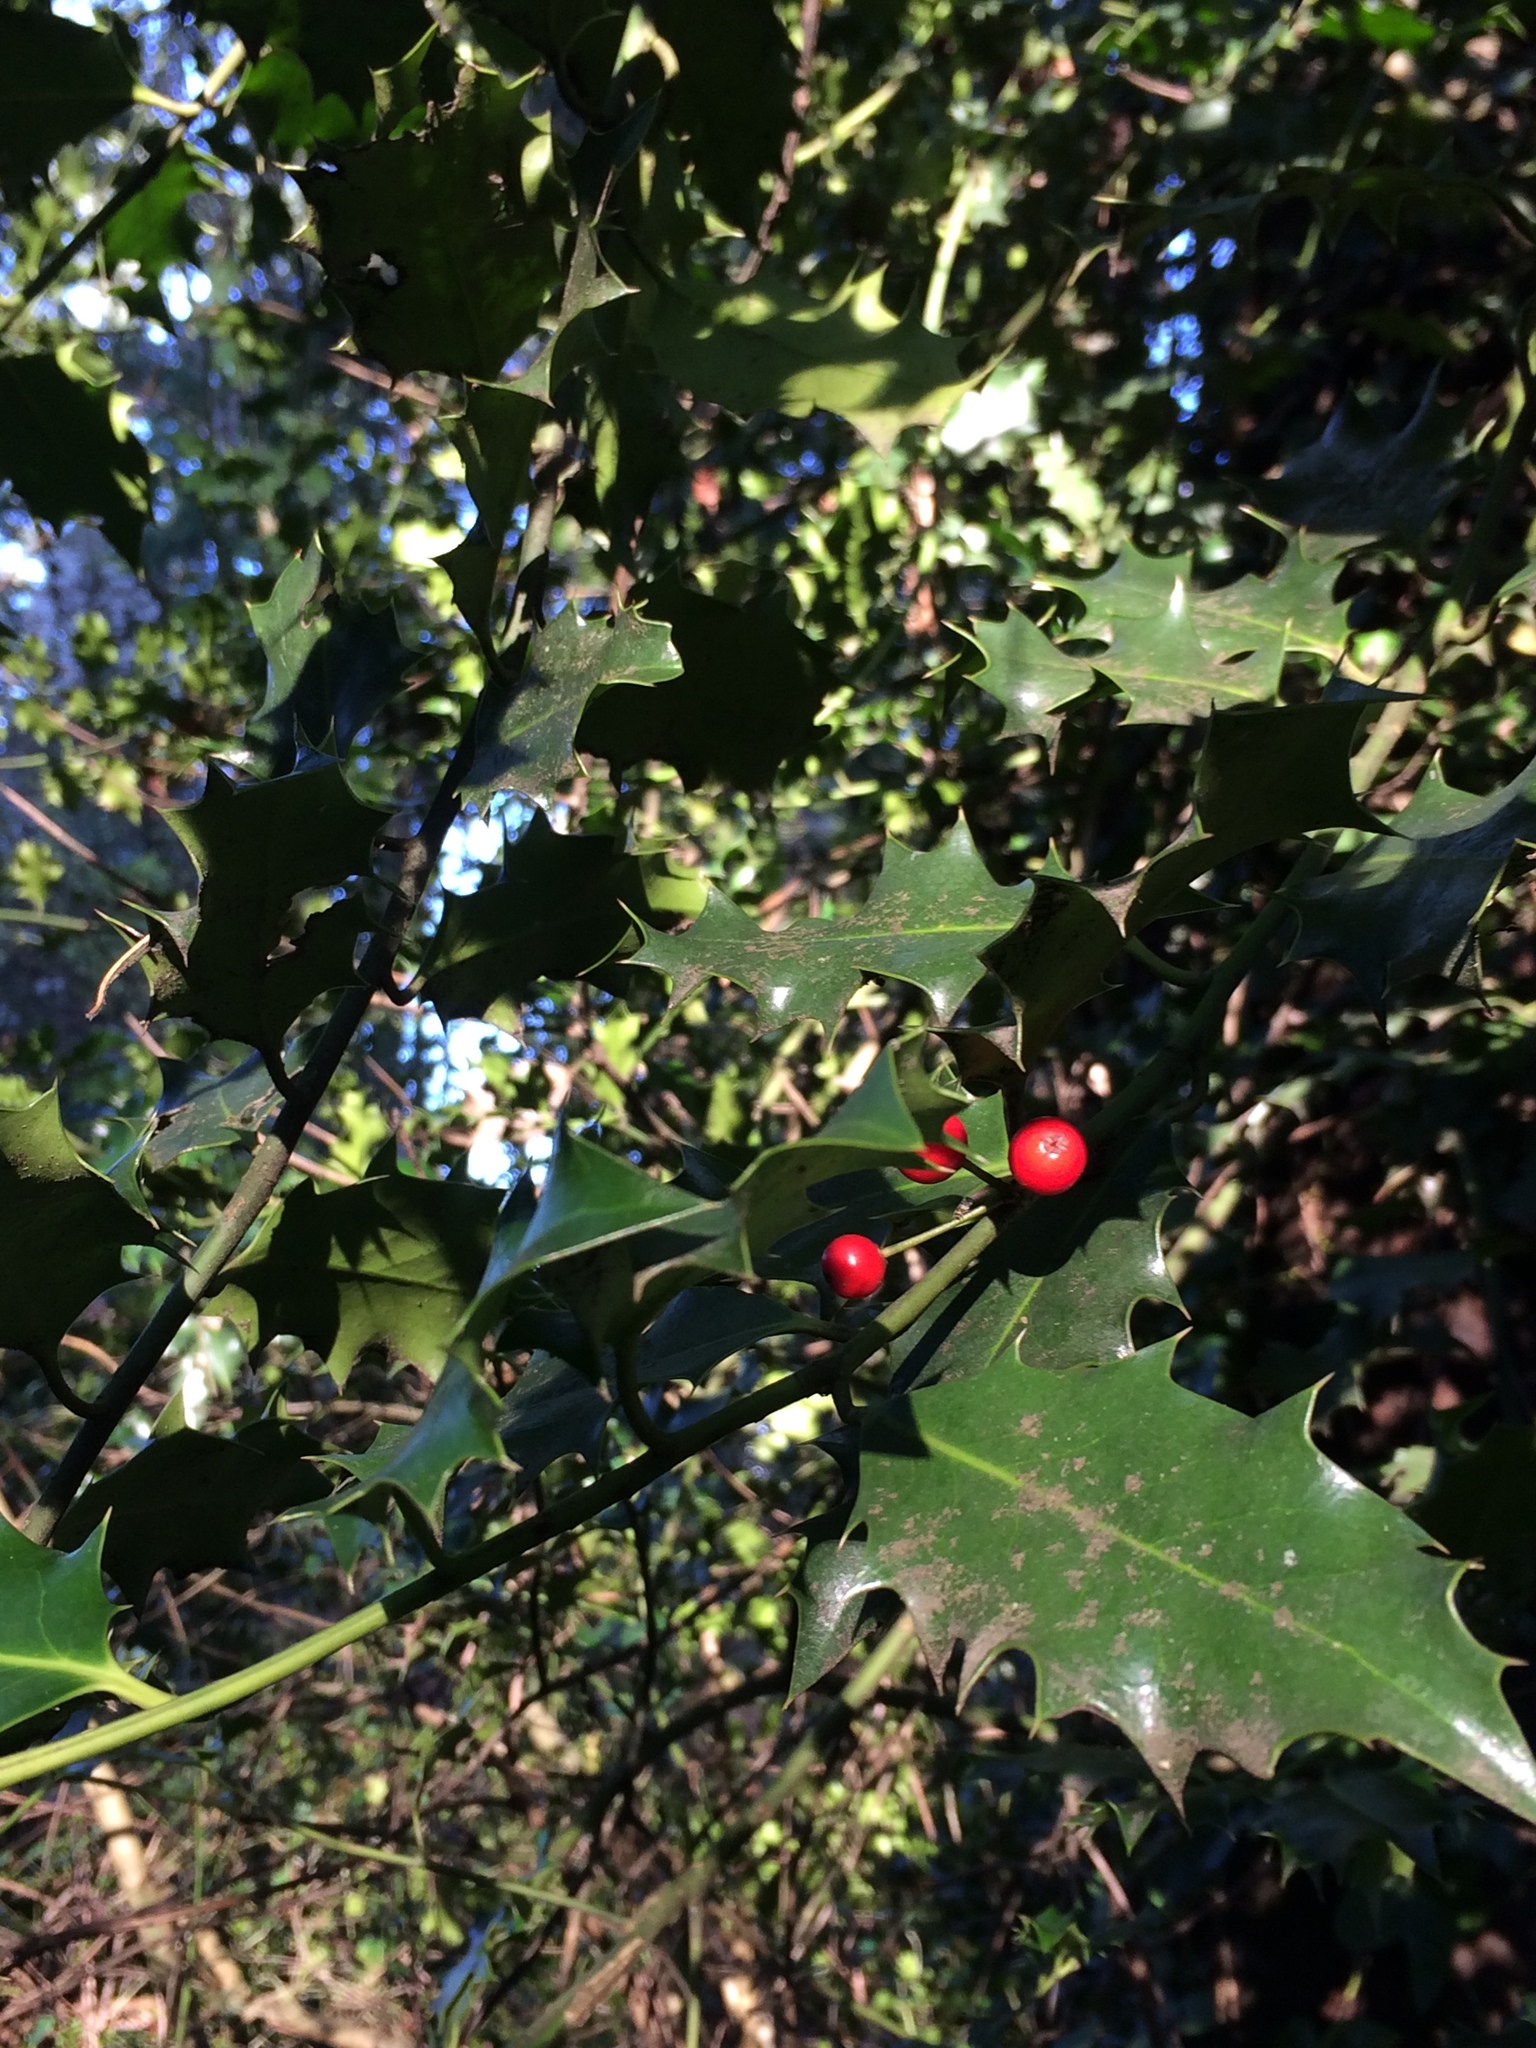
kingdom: Plantae
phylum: Tracheophyta
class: Magnoliopsida
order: Aquifoliales
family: Aquifoliaceae
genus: Ilex
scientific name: Ilex aquifolium
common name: English holly
